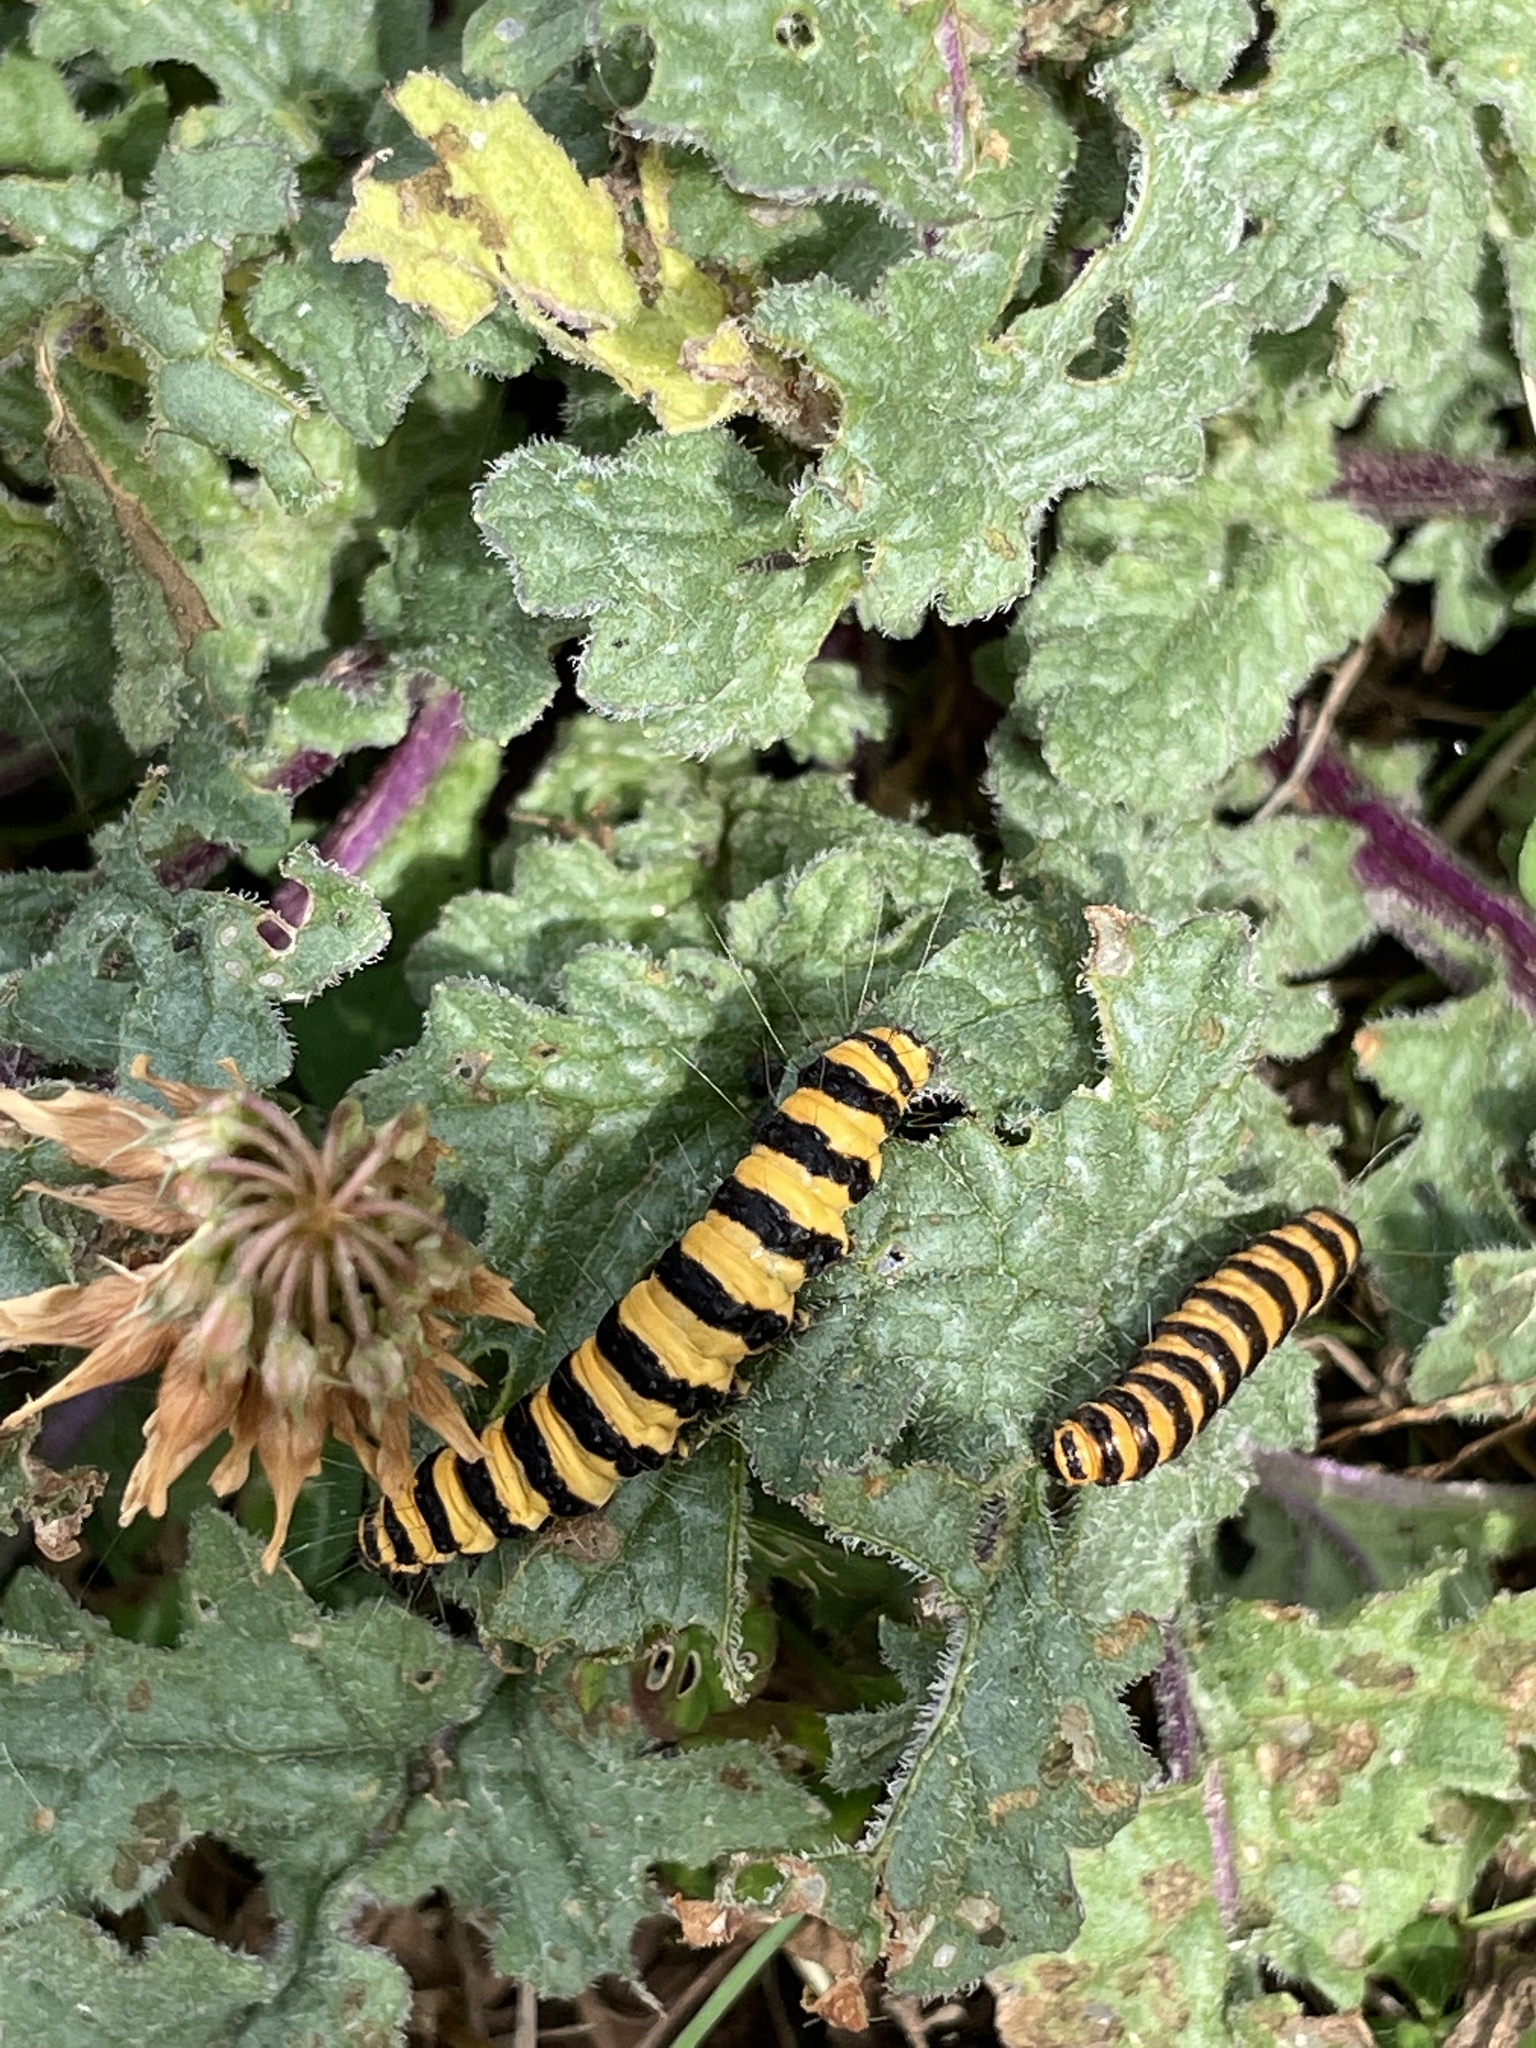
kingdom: Animalia
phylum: Arthropoda
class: Insecta
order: Lepidoptera
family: Erebidae
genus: Tyria
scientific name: Tyria jacobaeae
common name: Cinnabar
